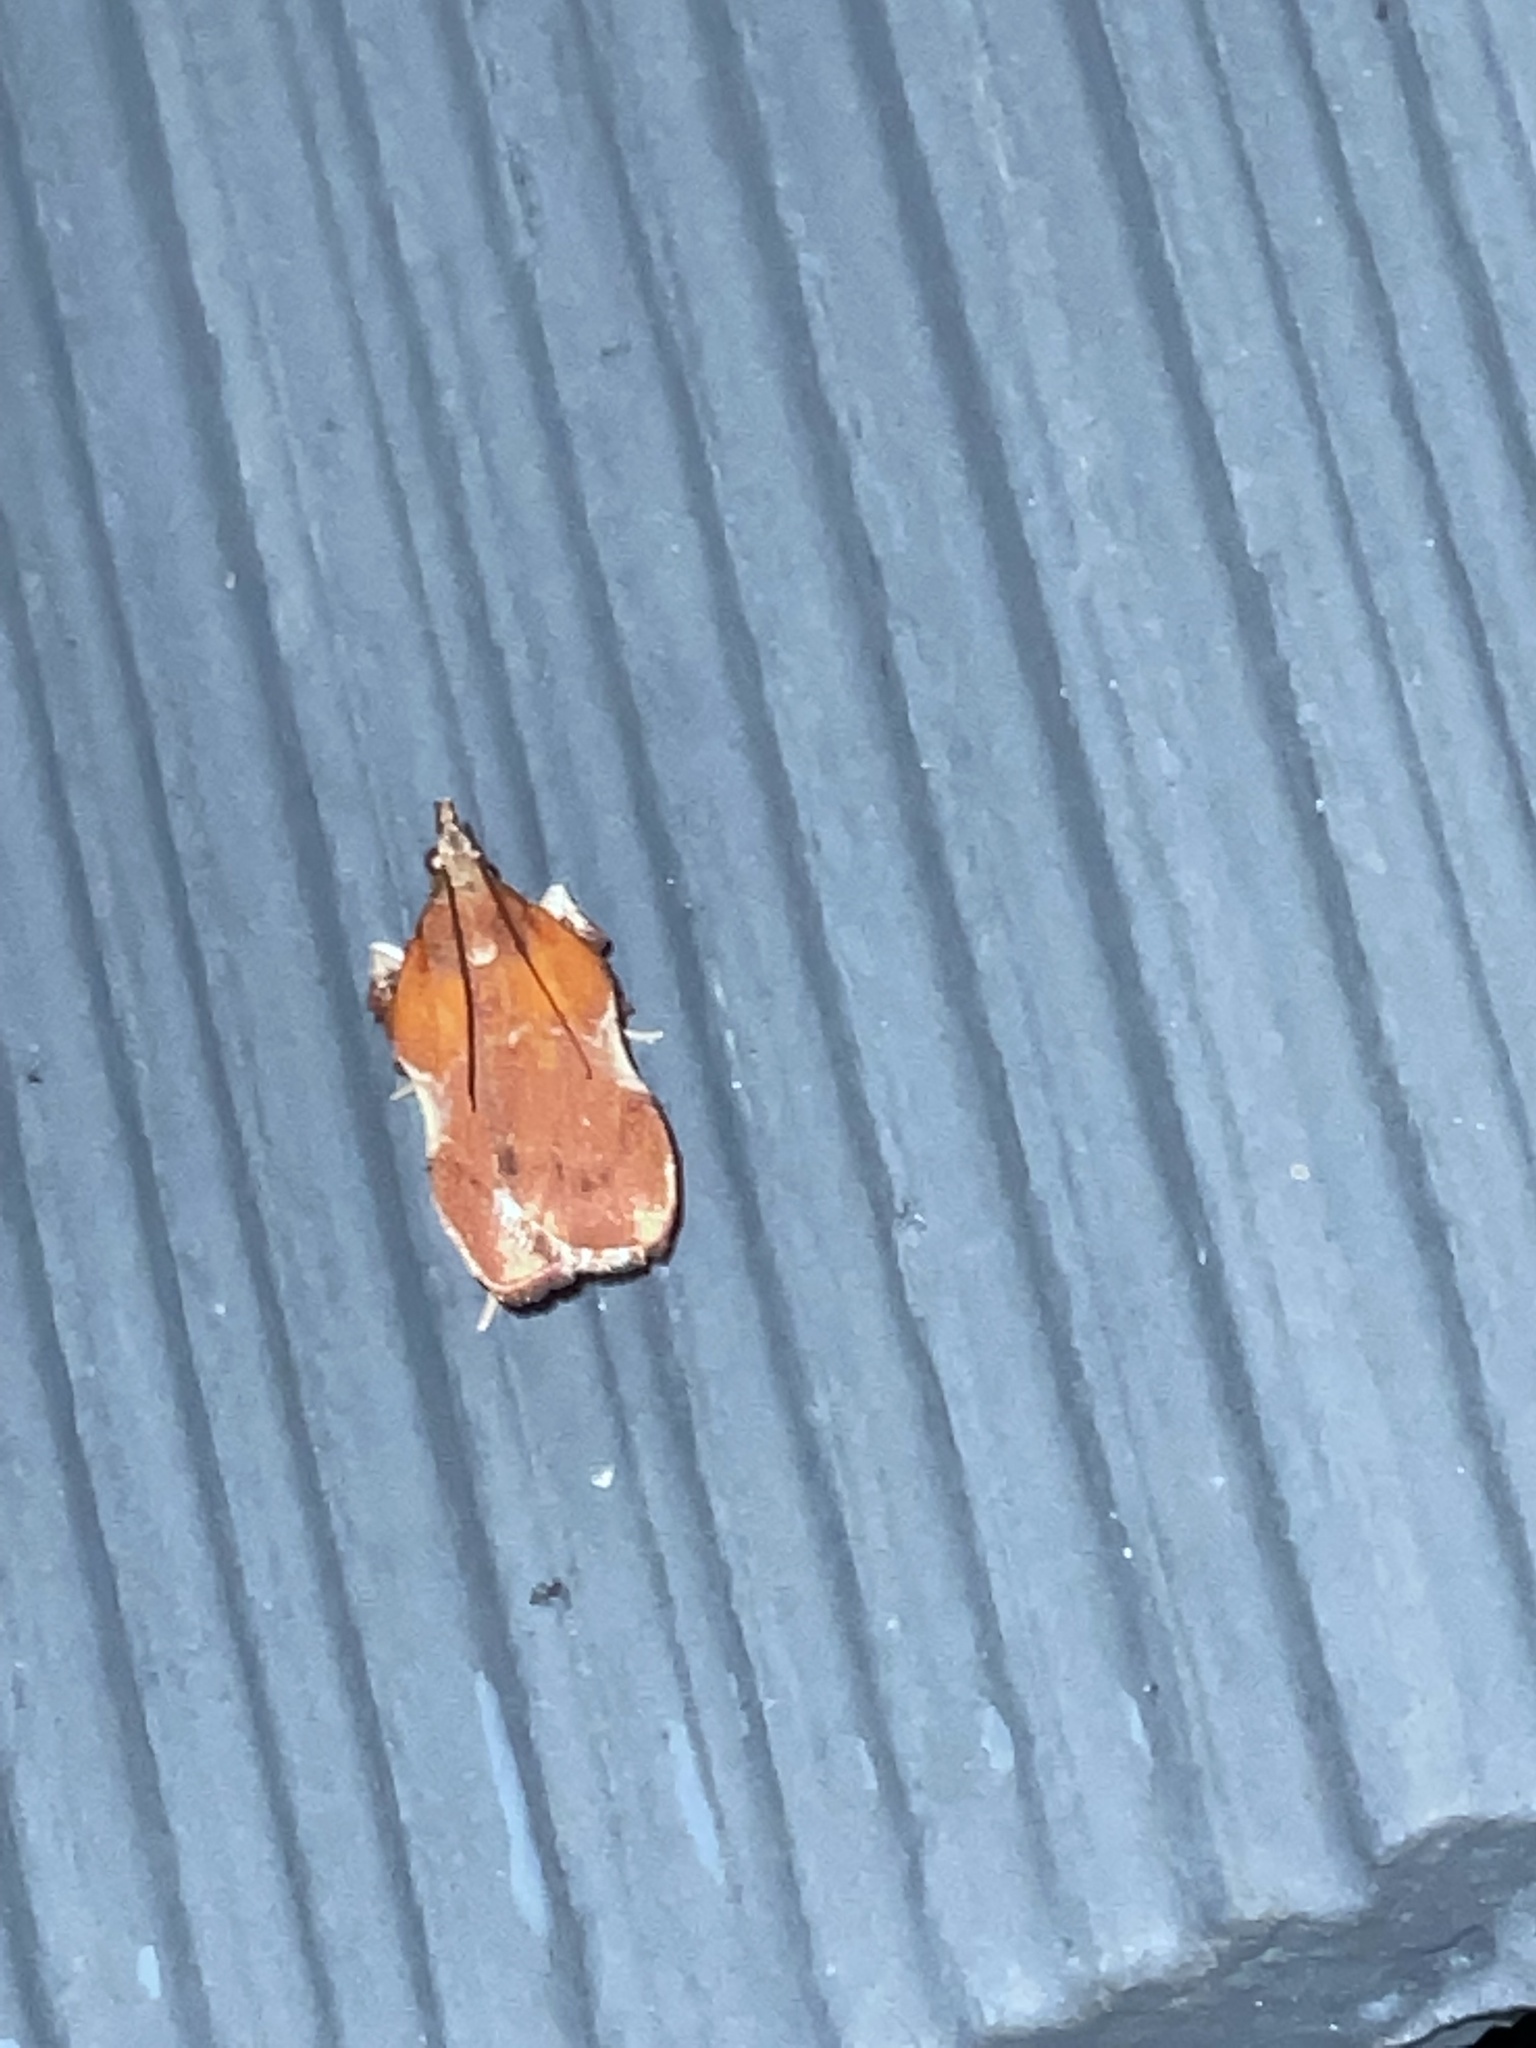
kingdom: Animalia
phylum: Arthropoda
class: Insecta
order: Lepidoptera
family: Pyralidae
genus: Galasa
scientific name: Galasa nigrinodis
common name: Boxwood leaftier moth
